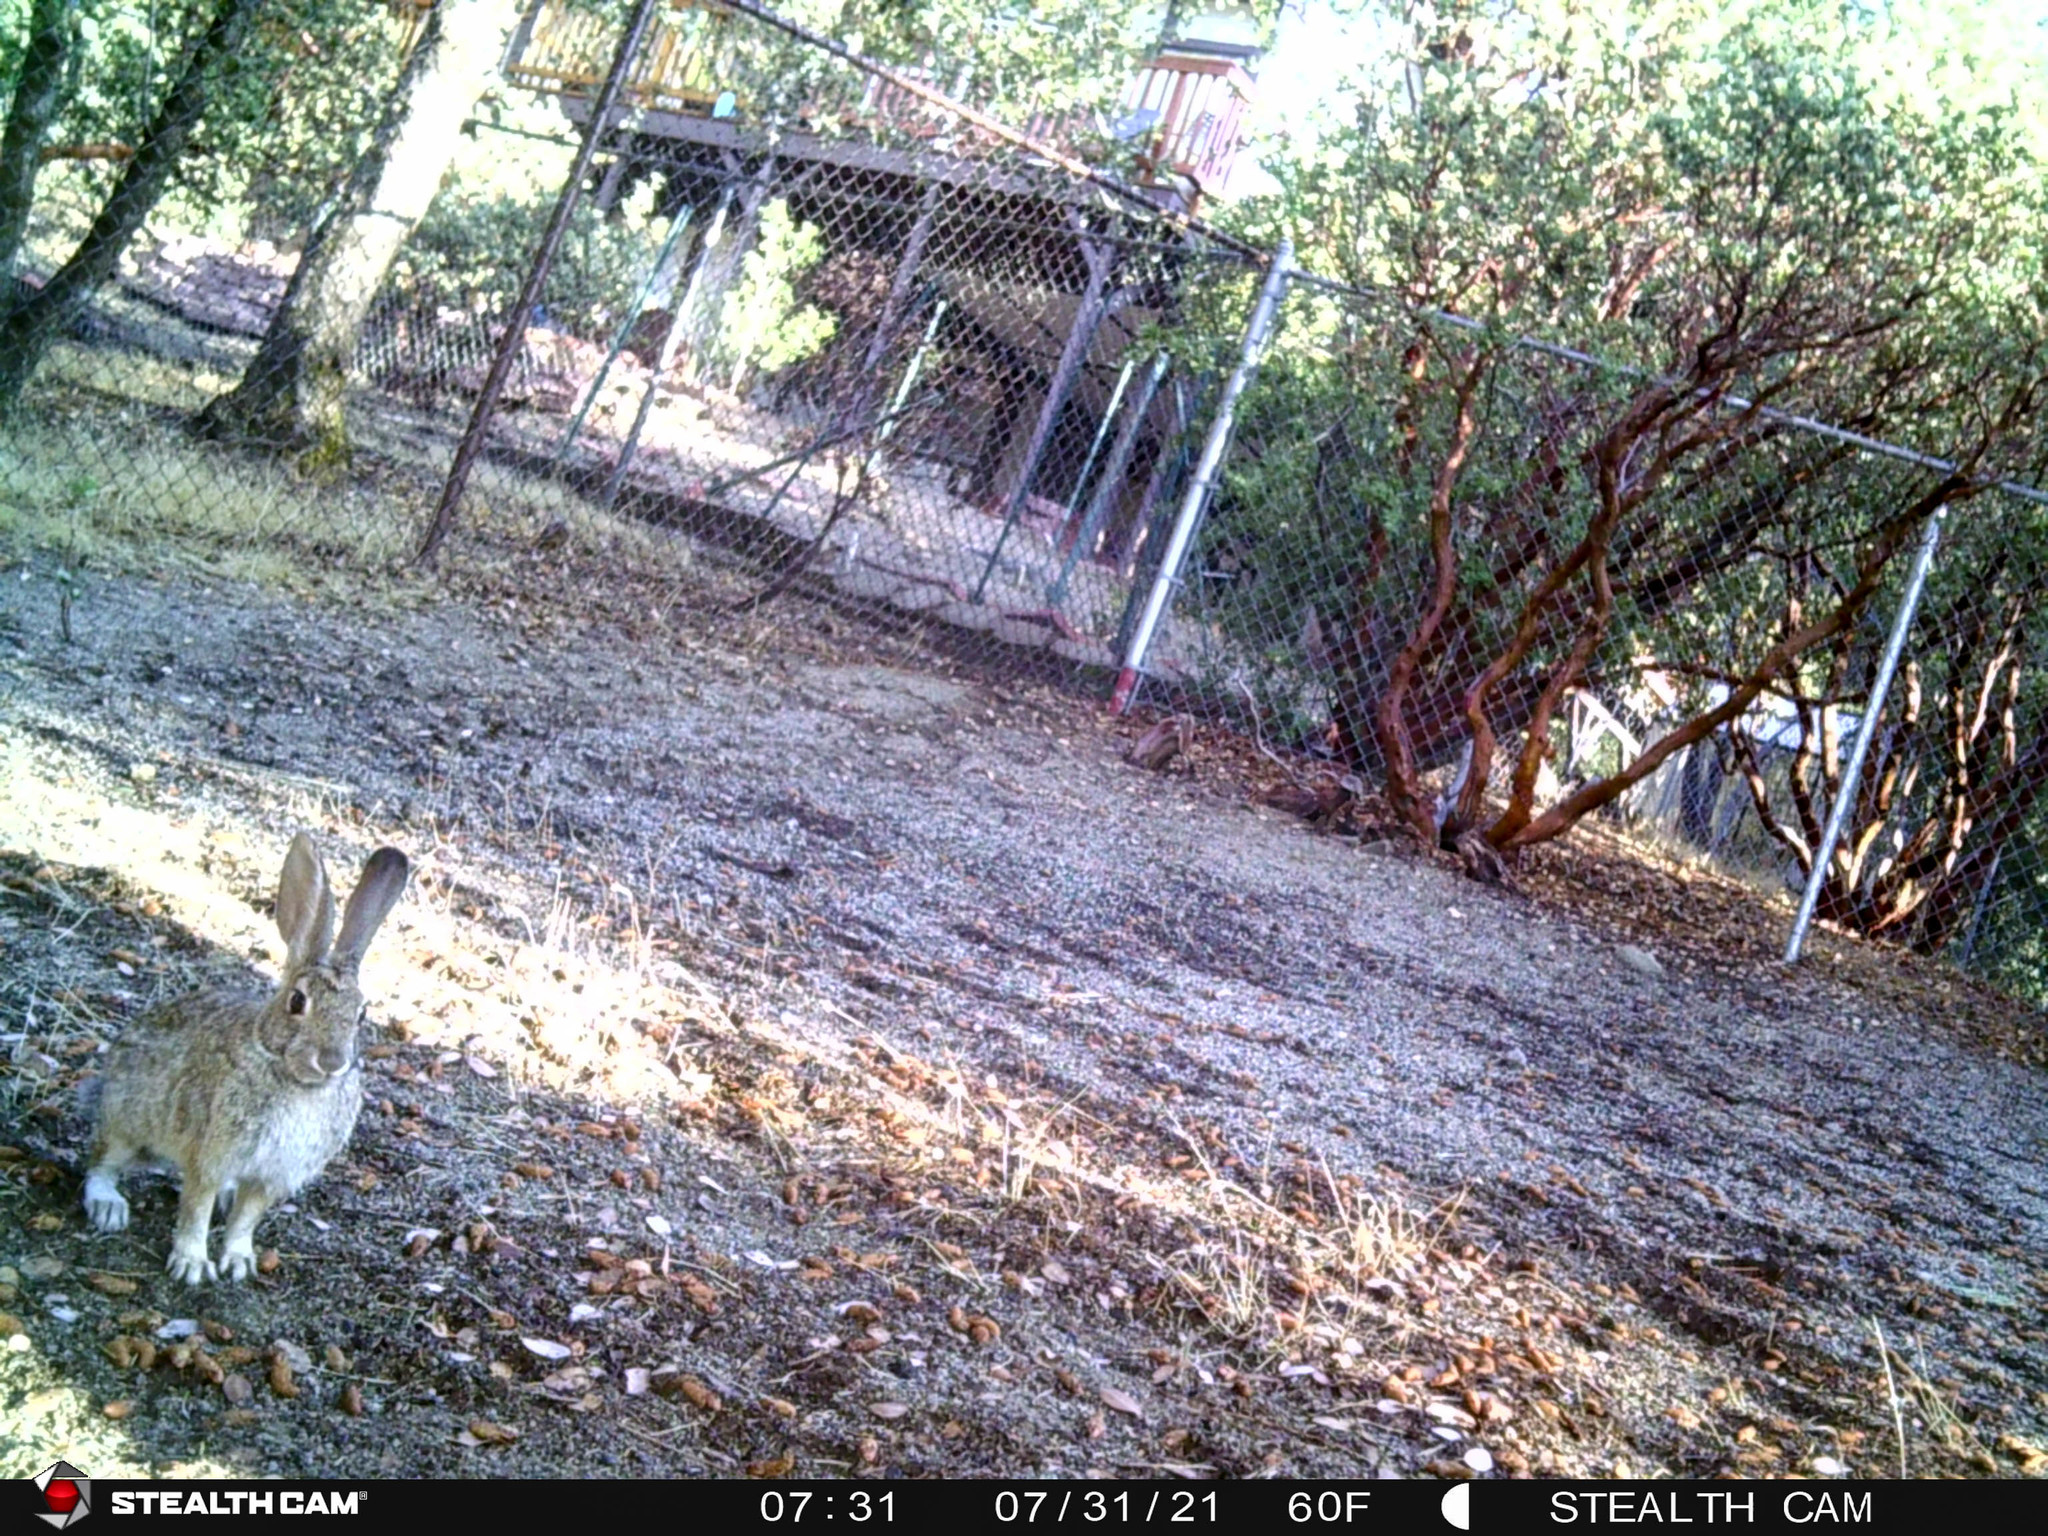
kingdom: Animalia
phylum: Chordata
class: Mammalia
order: Lagomorpha
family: Leporidae
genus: Sylvilagus
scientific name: Sylvilagus audubonii
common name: Desert cottontail
